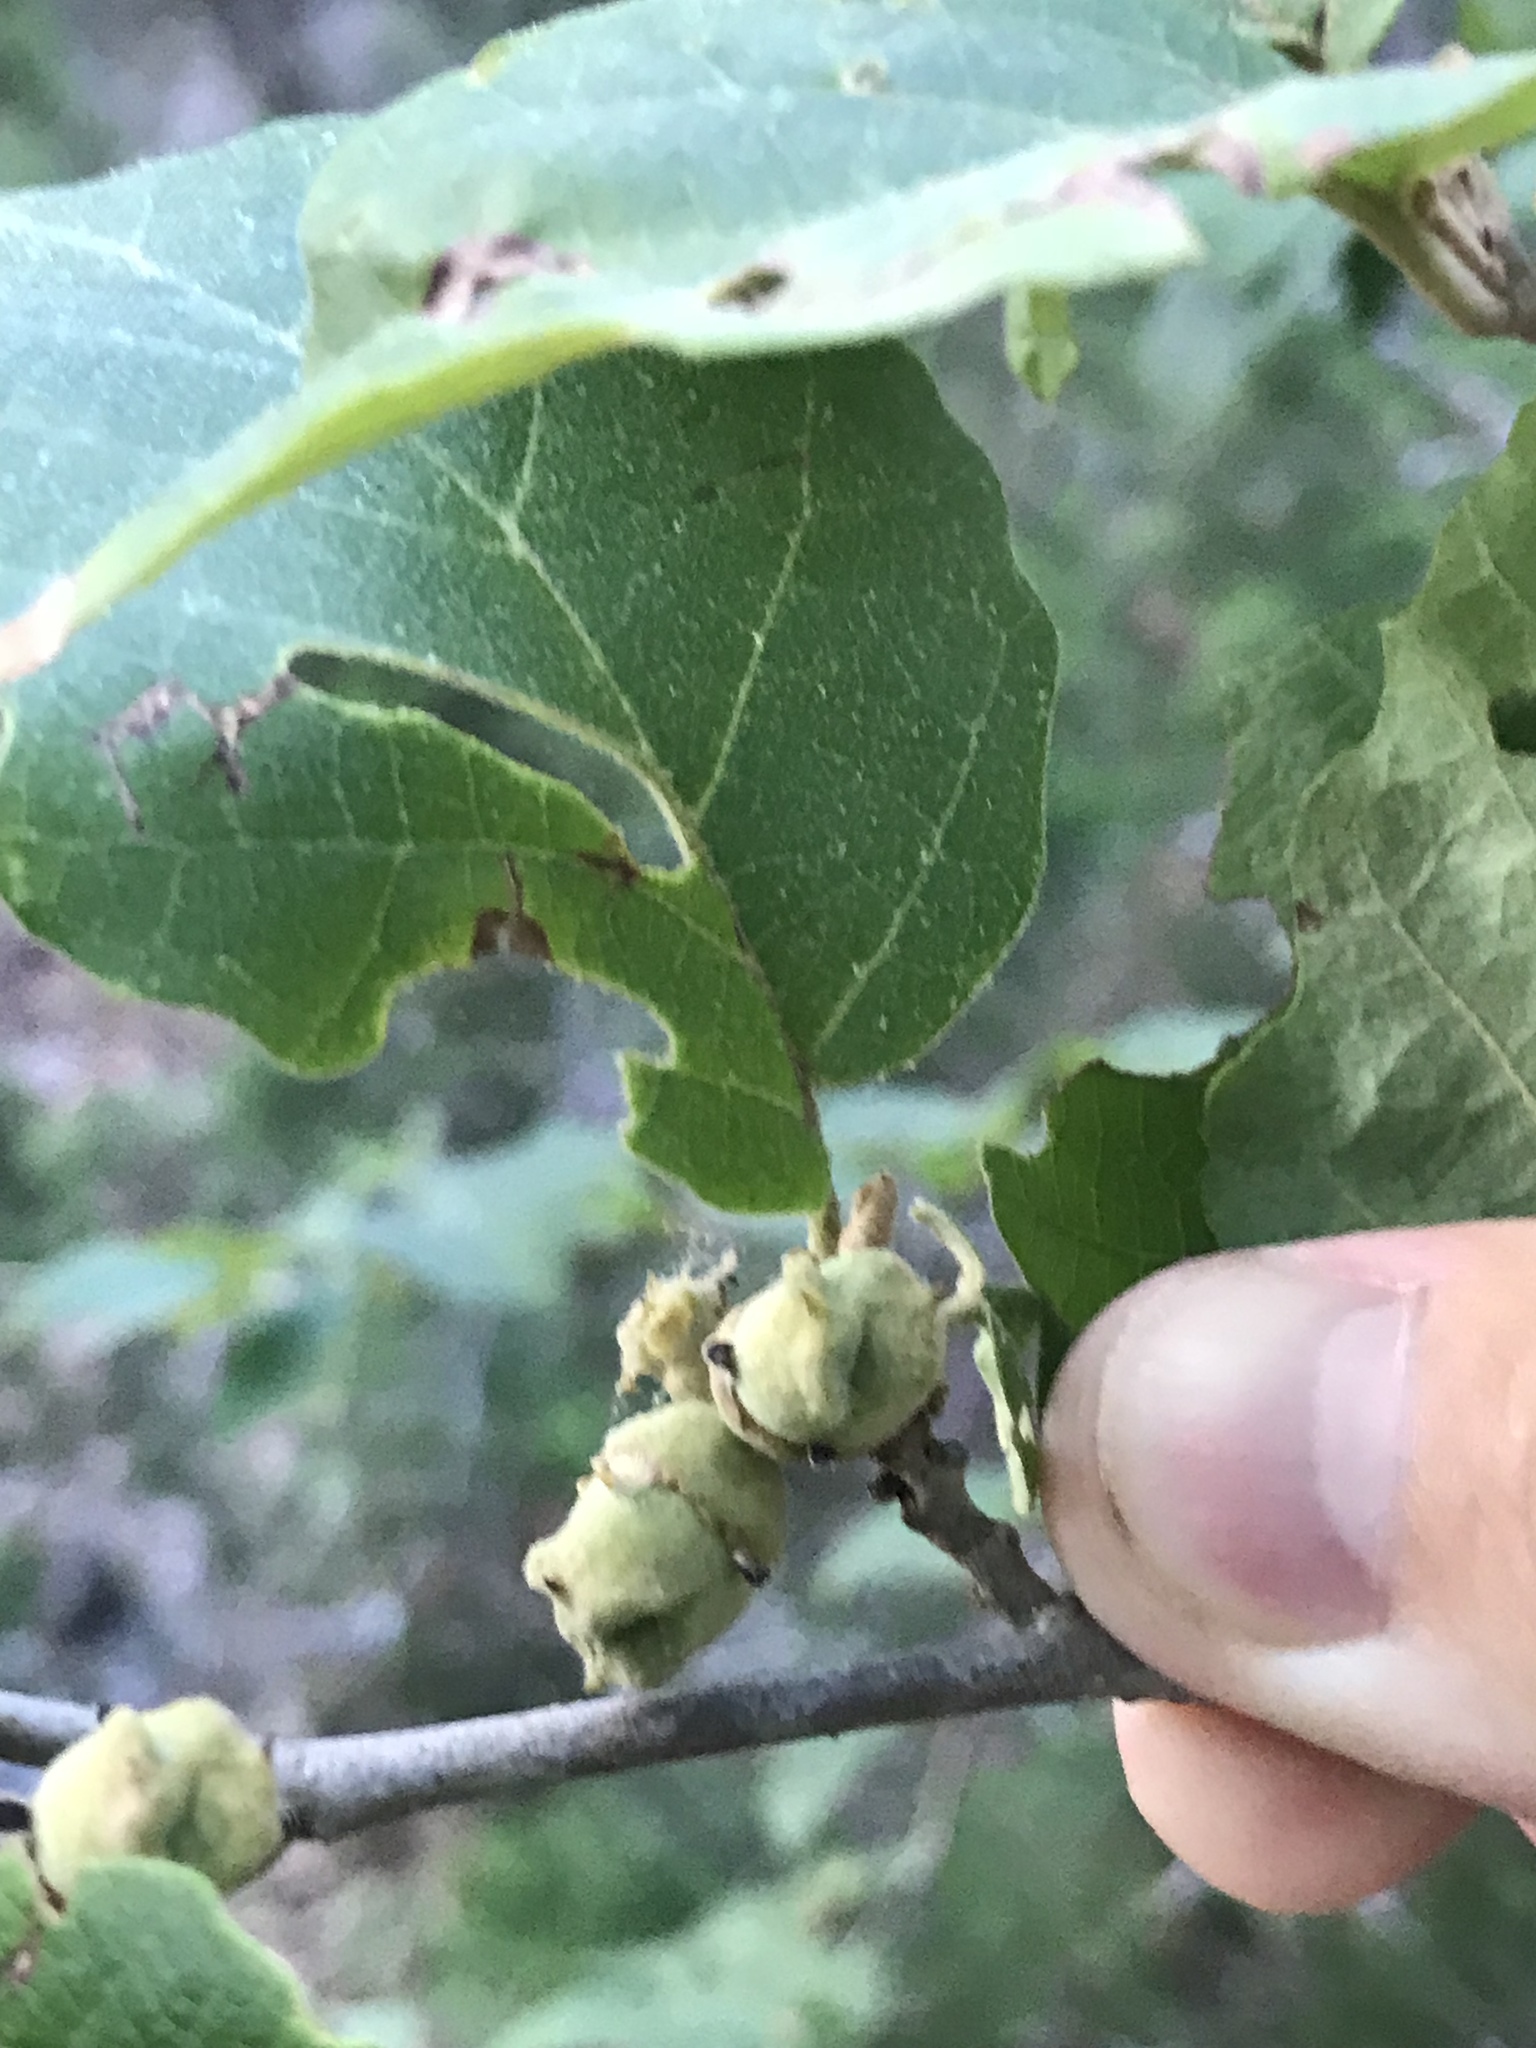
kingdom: Plantae
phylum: Tracheophyta
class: Magnoliopsida
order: Saxifragales
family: Hamamelidaceae
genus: Hamamelis
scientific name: Hamamelis virginiana
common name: Witch-hazel
